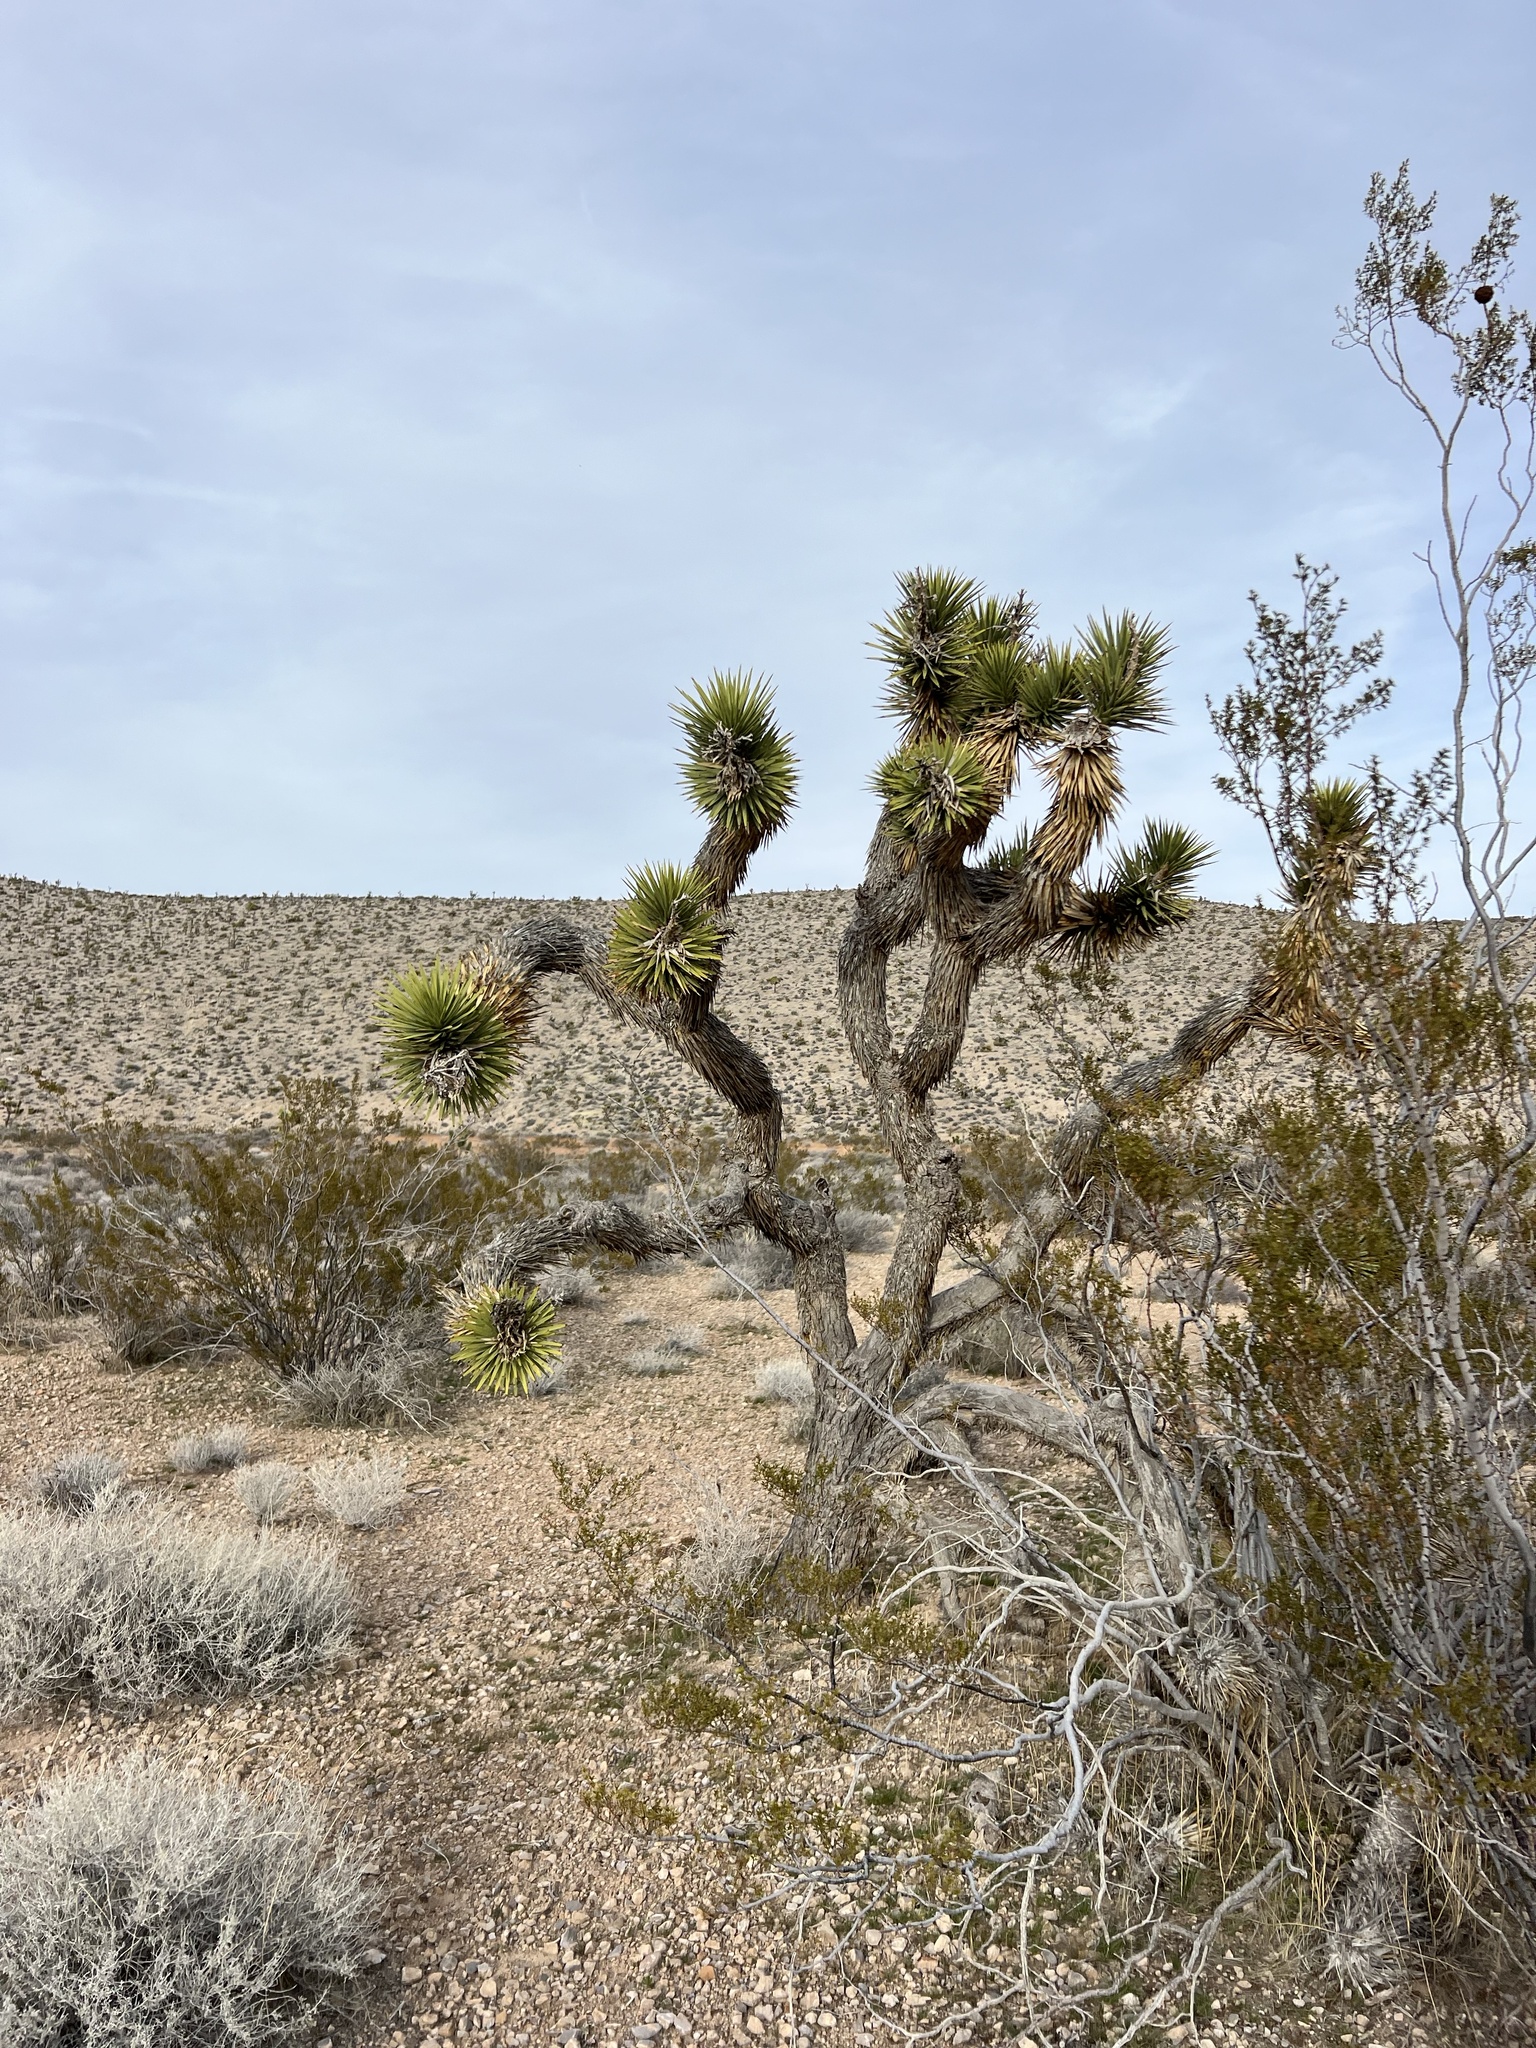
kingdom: Plantae
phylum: Tracheophyta
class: Liliopsida
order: Asparagales
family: Asparagaceae
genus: Yucca
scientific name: Yucca brevifolia
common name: Joshua tree
